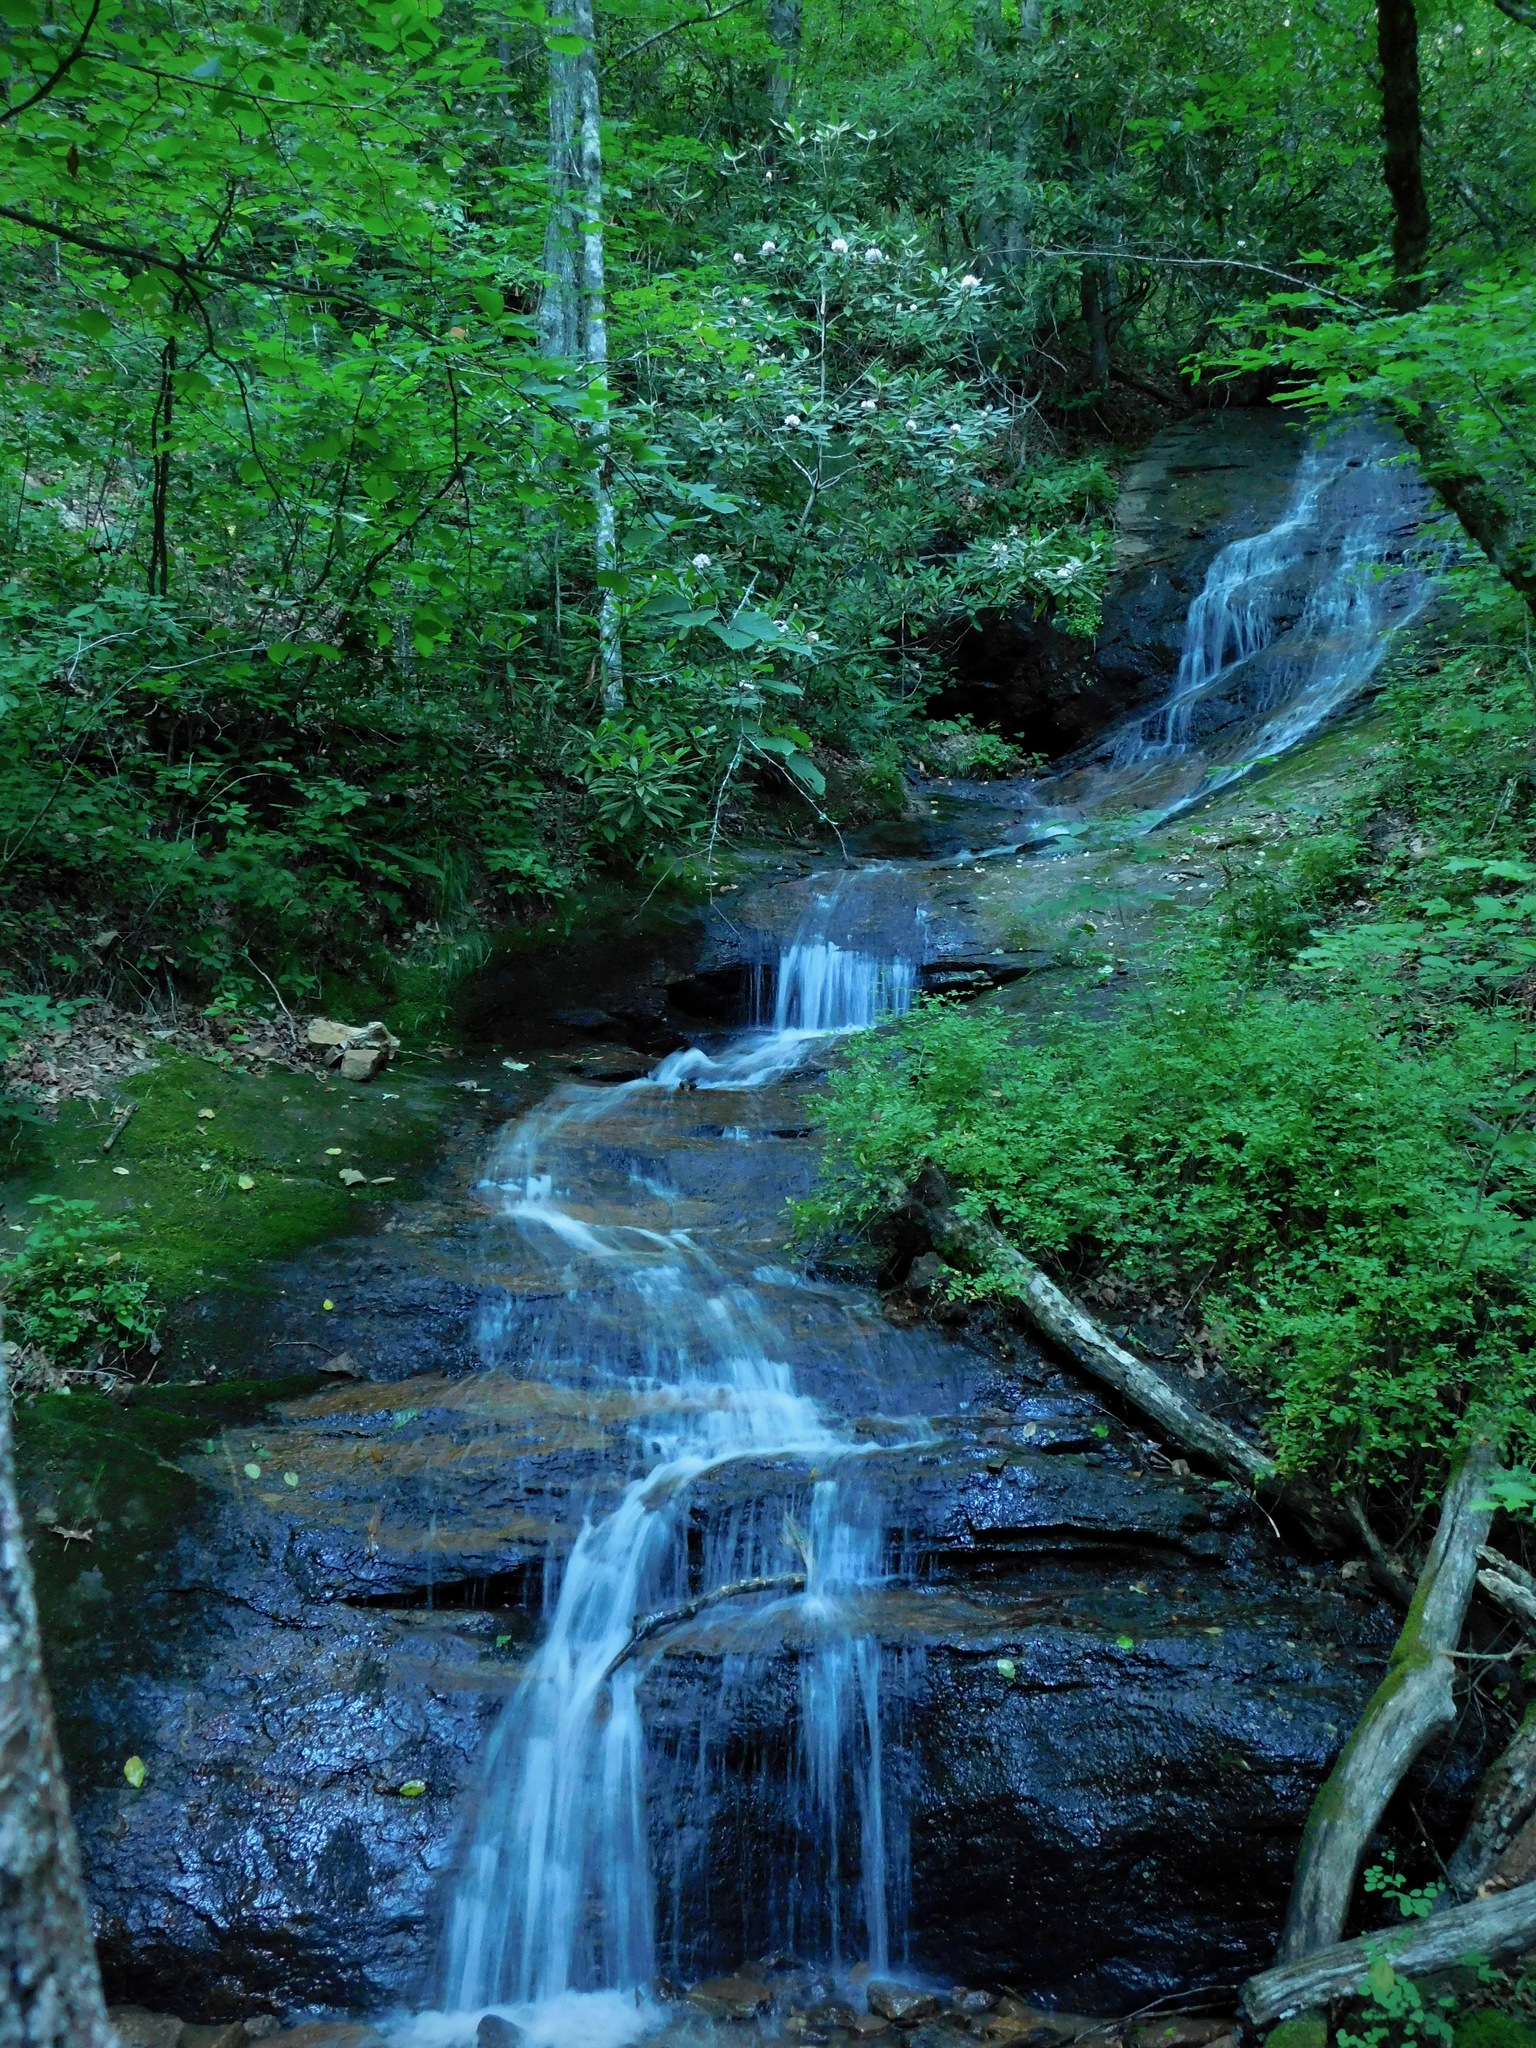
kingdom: Plantae
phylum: Tracheophyta
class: Magnoliopsida
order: Ericales
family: Ericaceae
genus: Rhododendron
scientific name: Rhododendron maximum
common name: Great rhododendron
